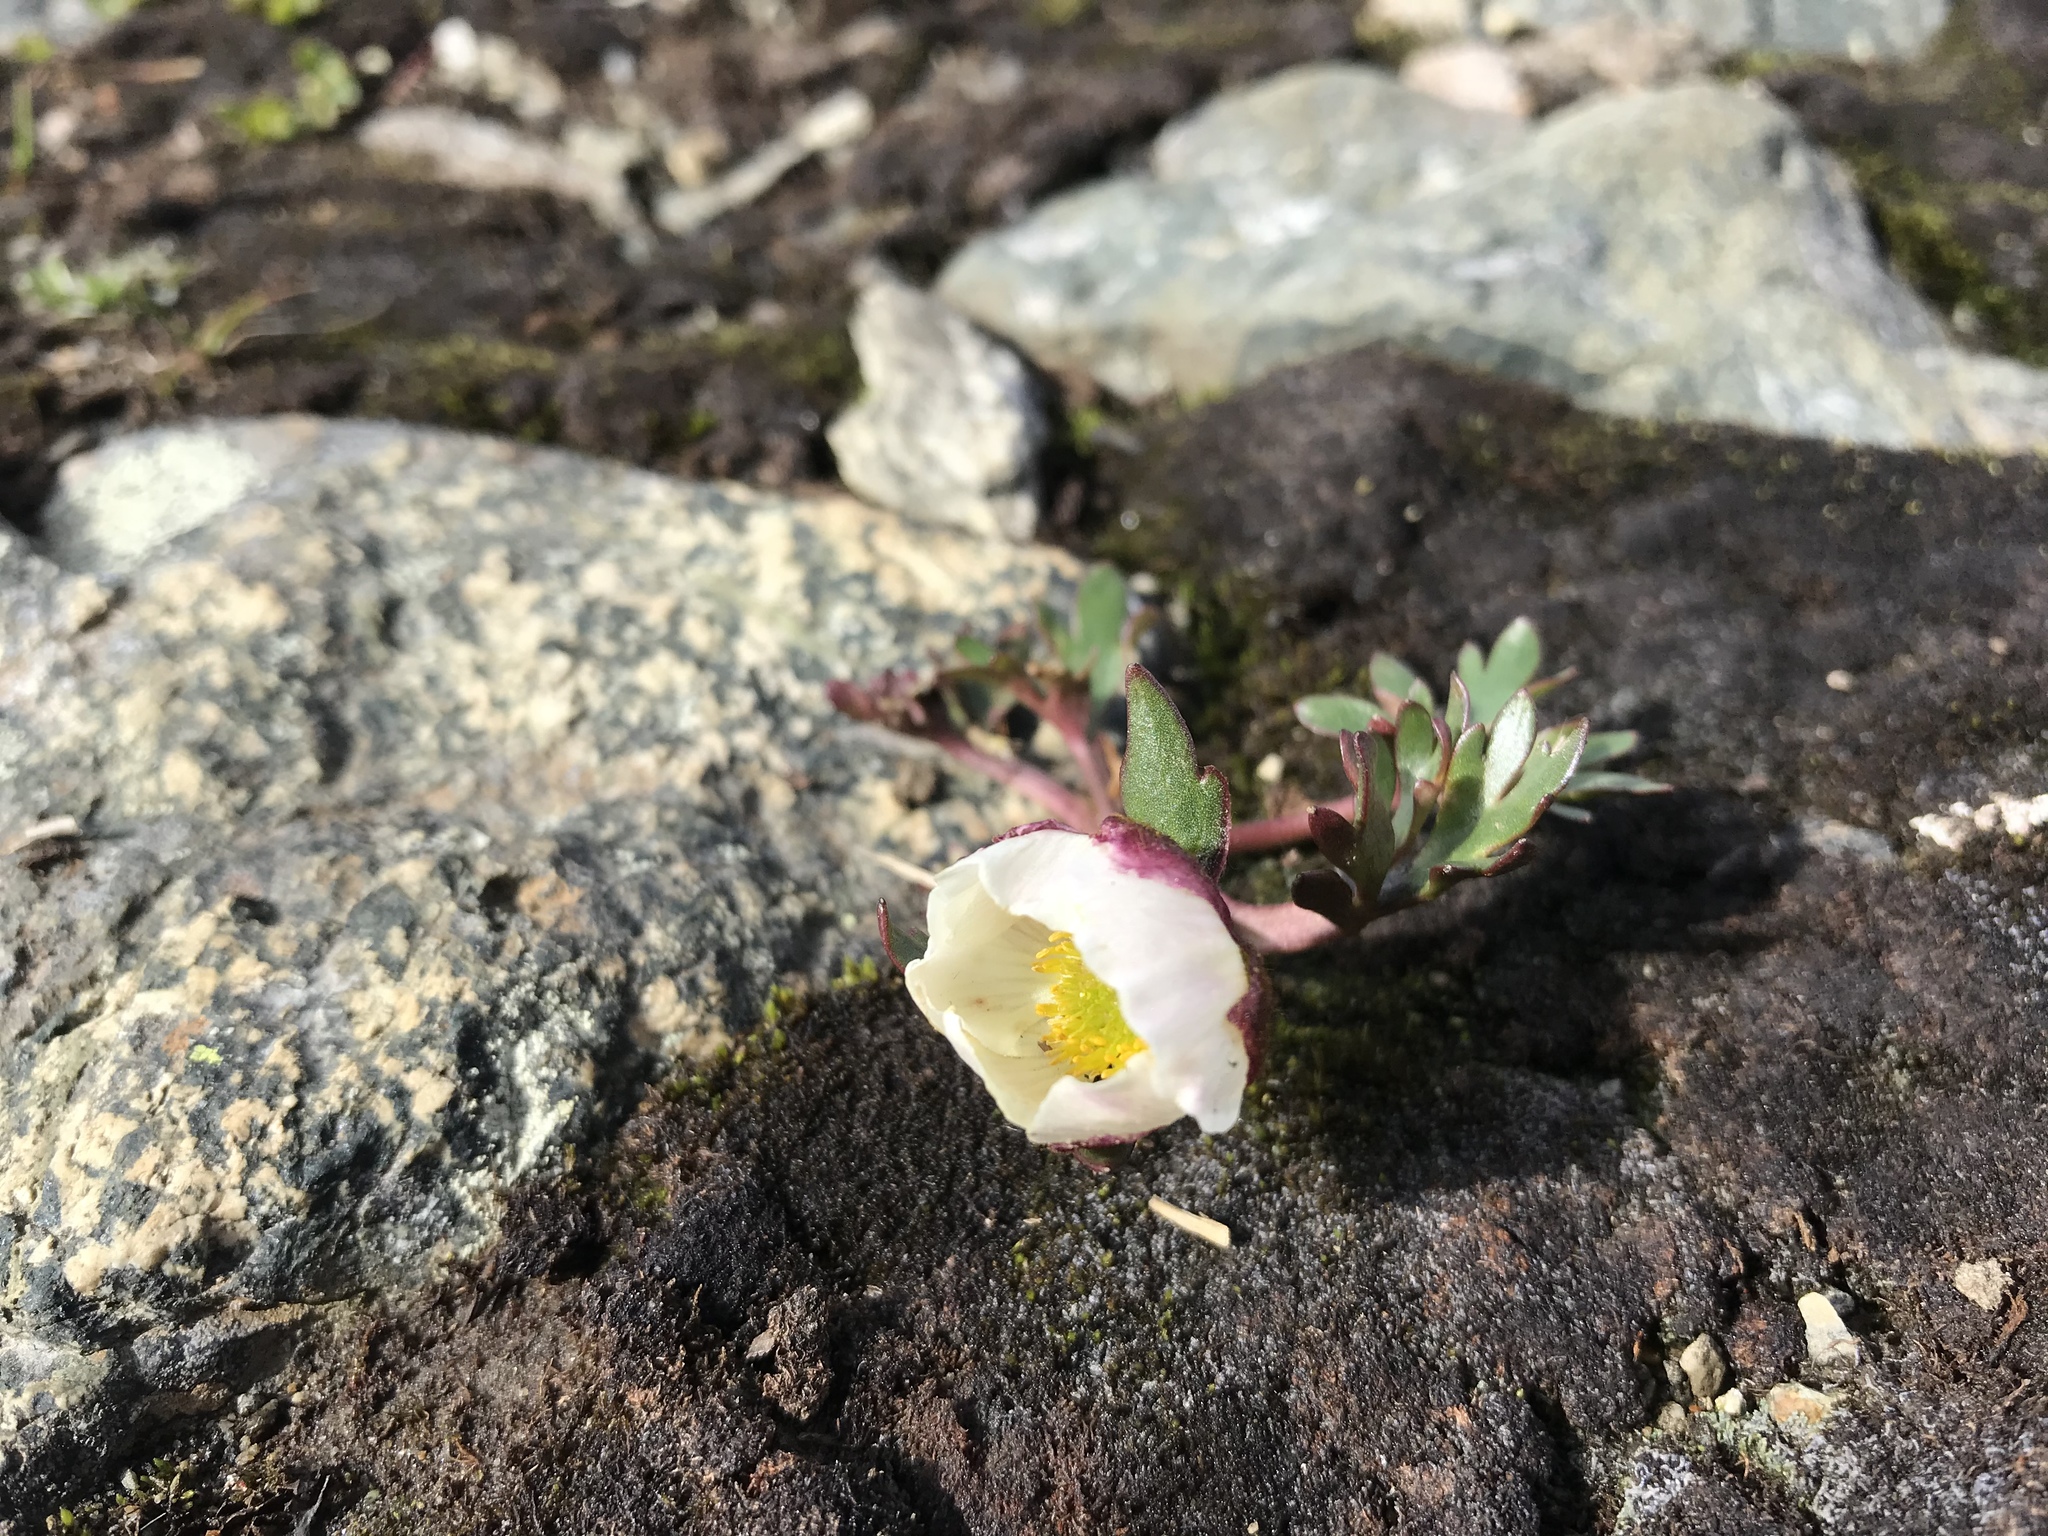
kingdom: Plantae
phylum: Tracheophyta
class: Magnoliopsida
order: Ranunculales
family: Ranunculaceae
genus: Ranunculus
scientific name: Ranunculus glacialis
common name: Glacier buttercup
